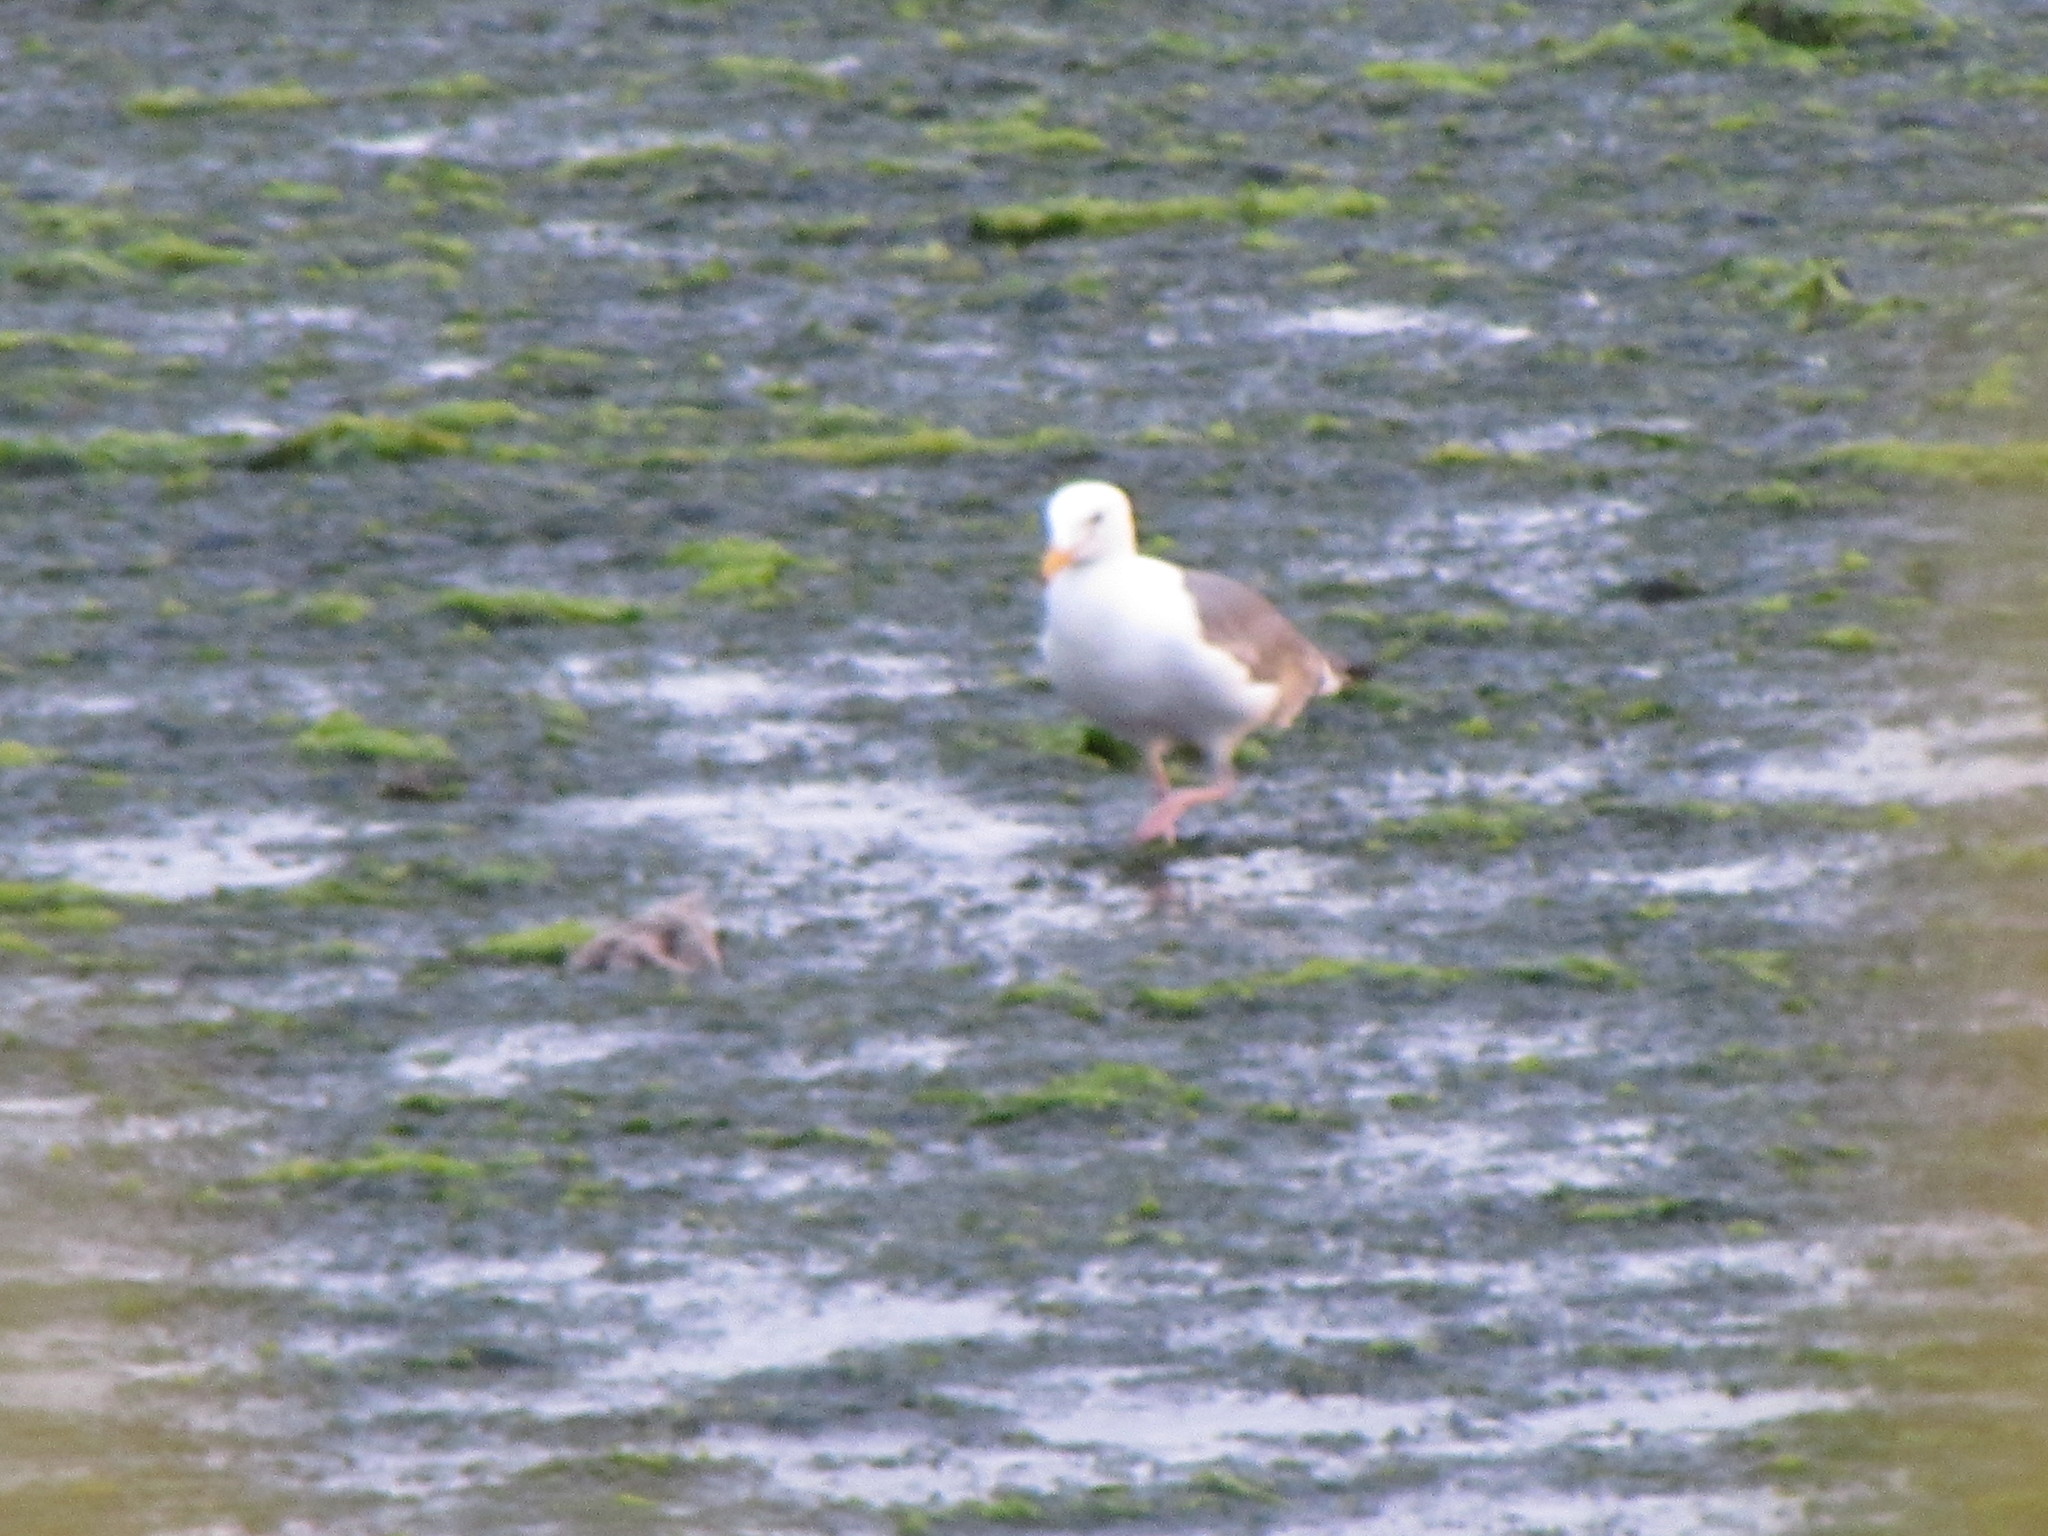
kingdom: Animalia
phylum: Chordata
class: Aves
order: Charadriiformes
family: Laridae
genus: Larus
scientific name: Larus occidentalis
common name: Western gull
